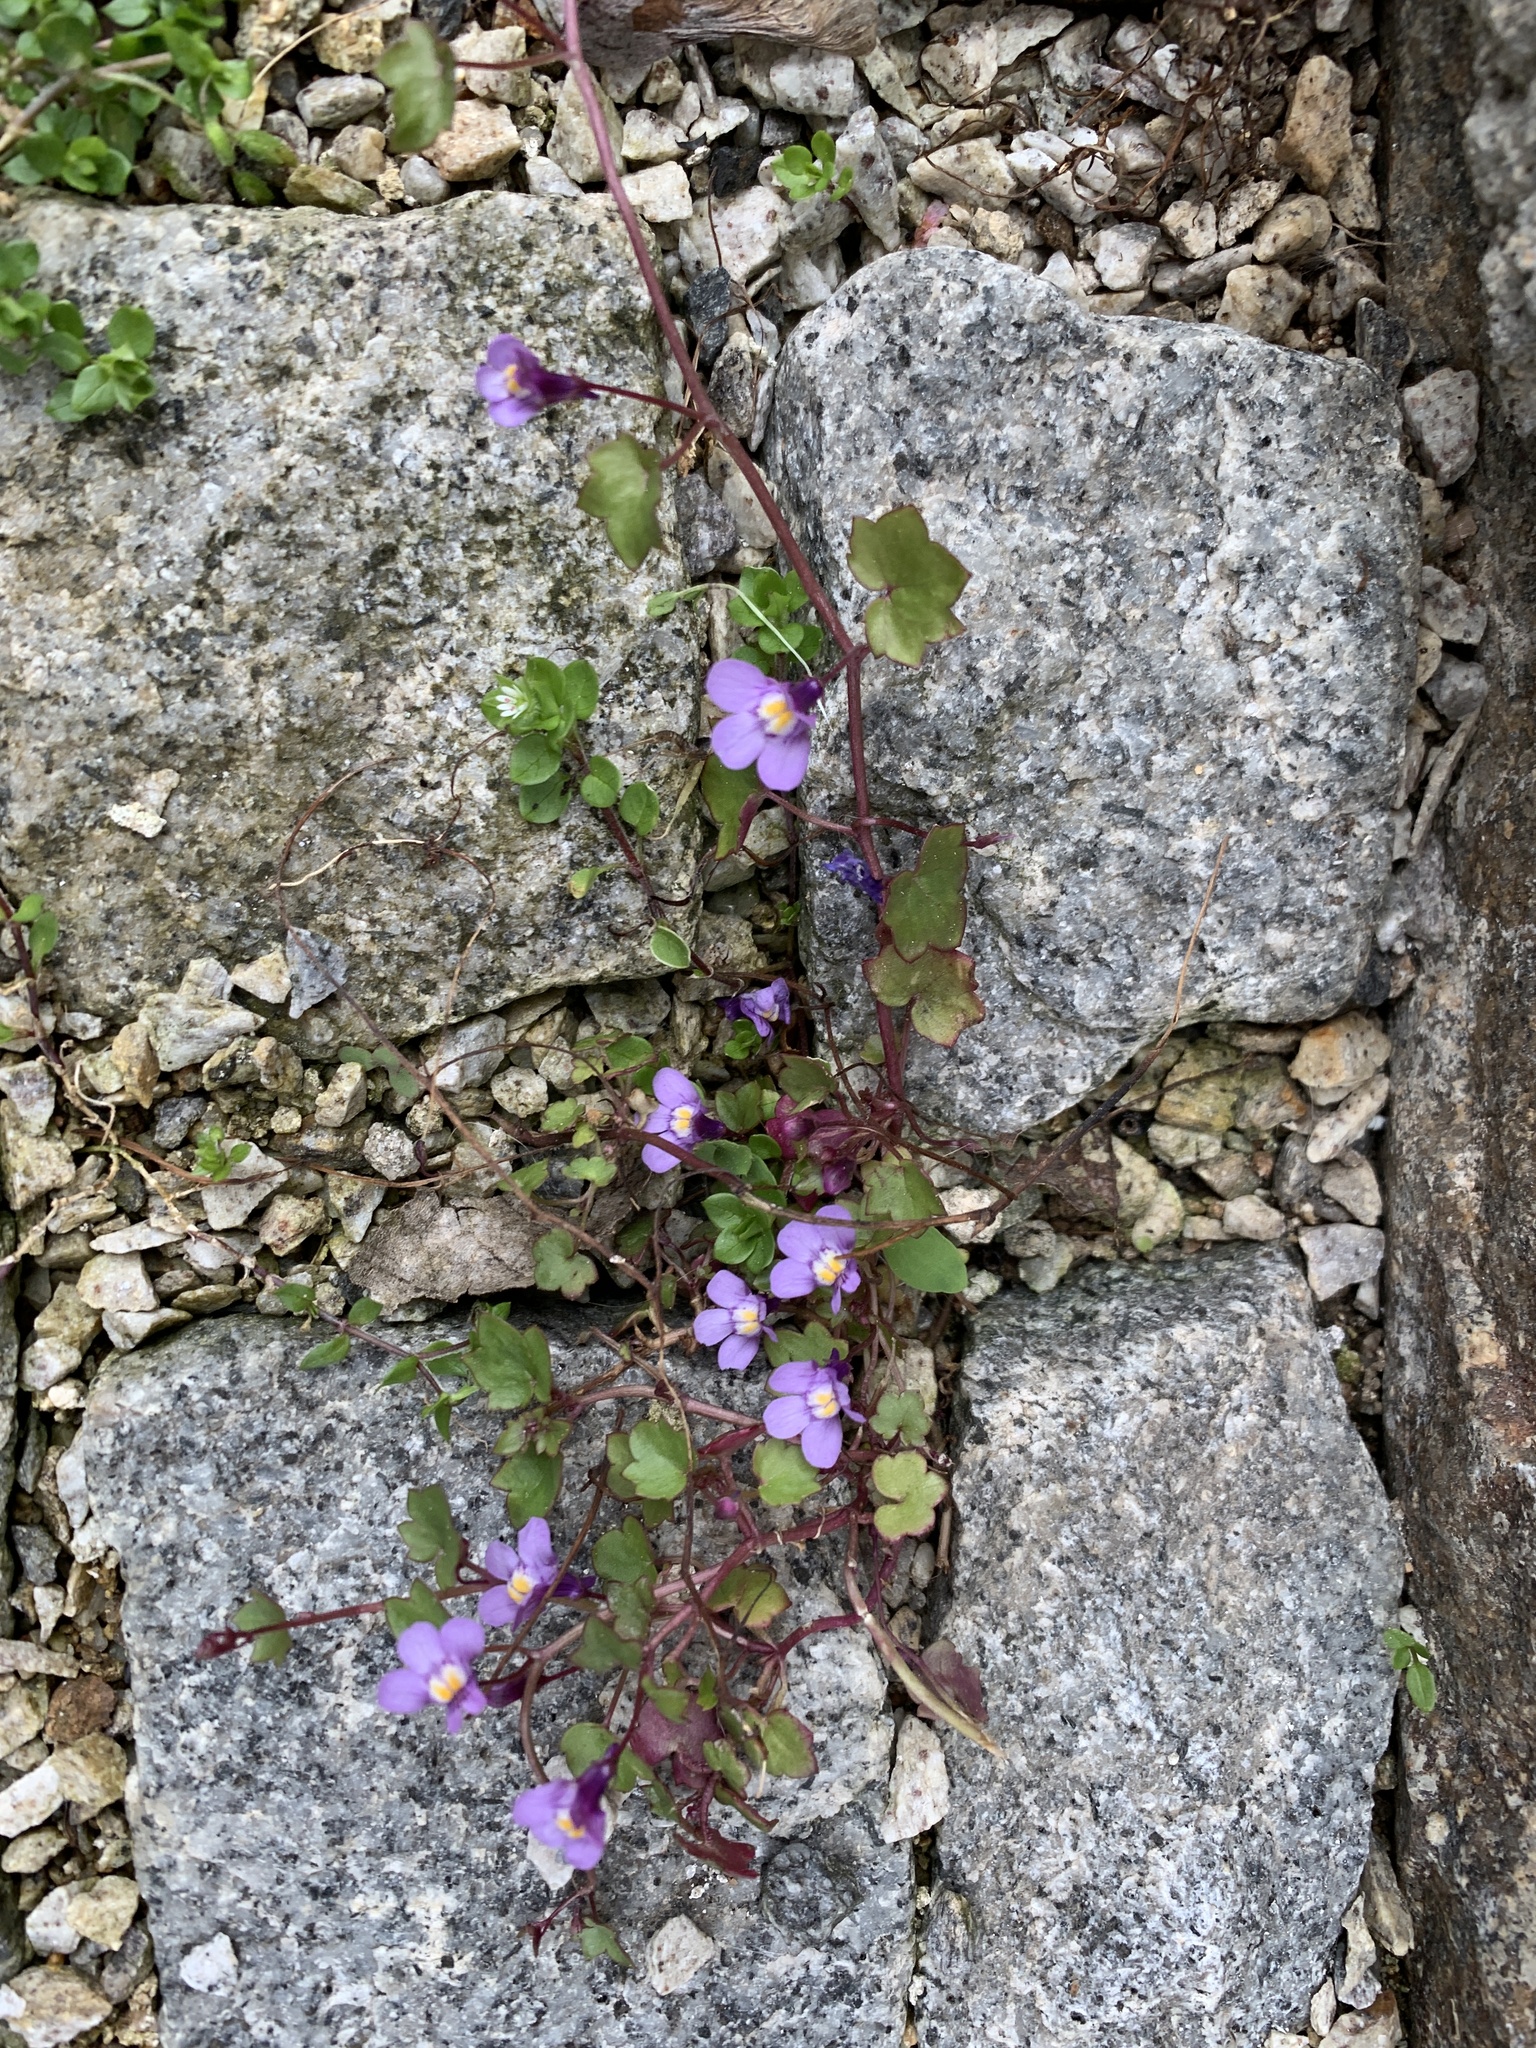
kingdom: Plantae
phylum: Tracheophyta
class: Magnoliopsida
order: Lamiales
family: Plantaginaceae
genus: Cymbalaria
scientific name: Cymbalaria muralis
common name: Ivy-leaved toadflax
